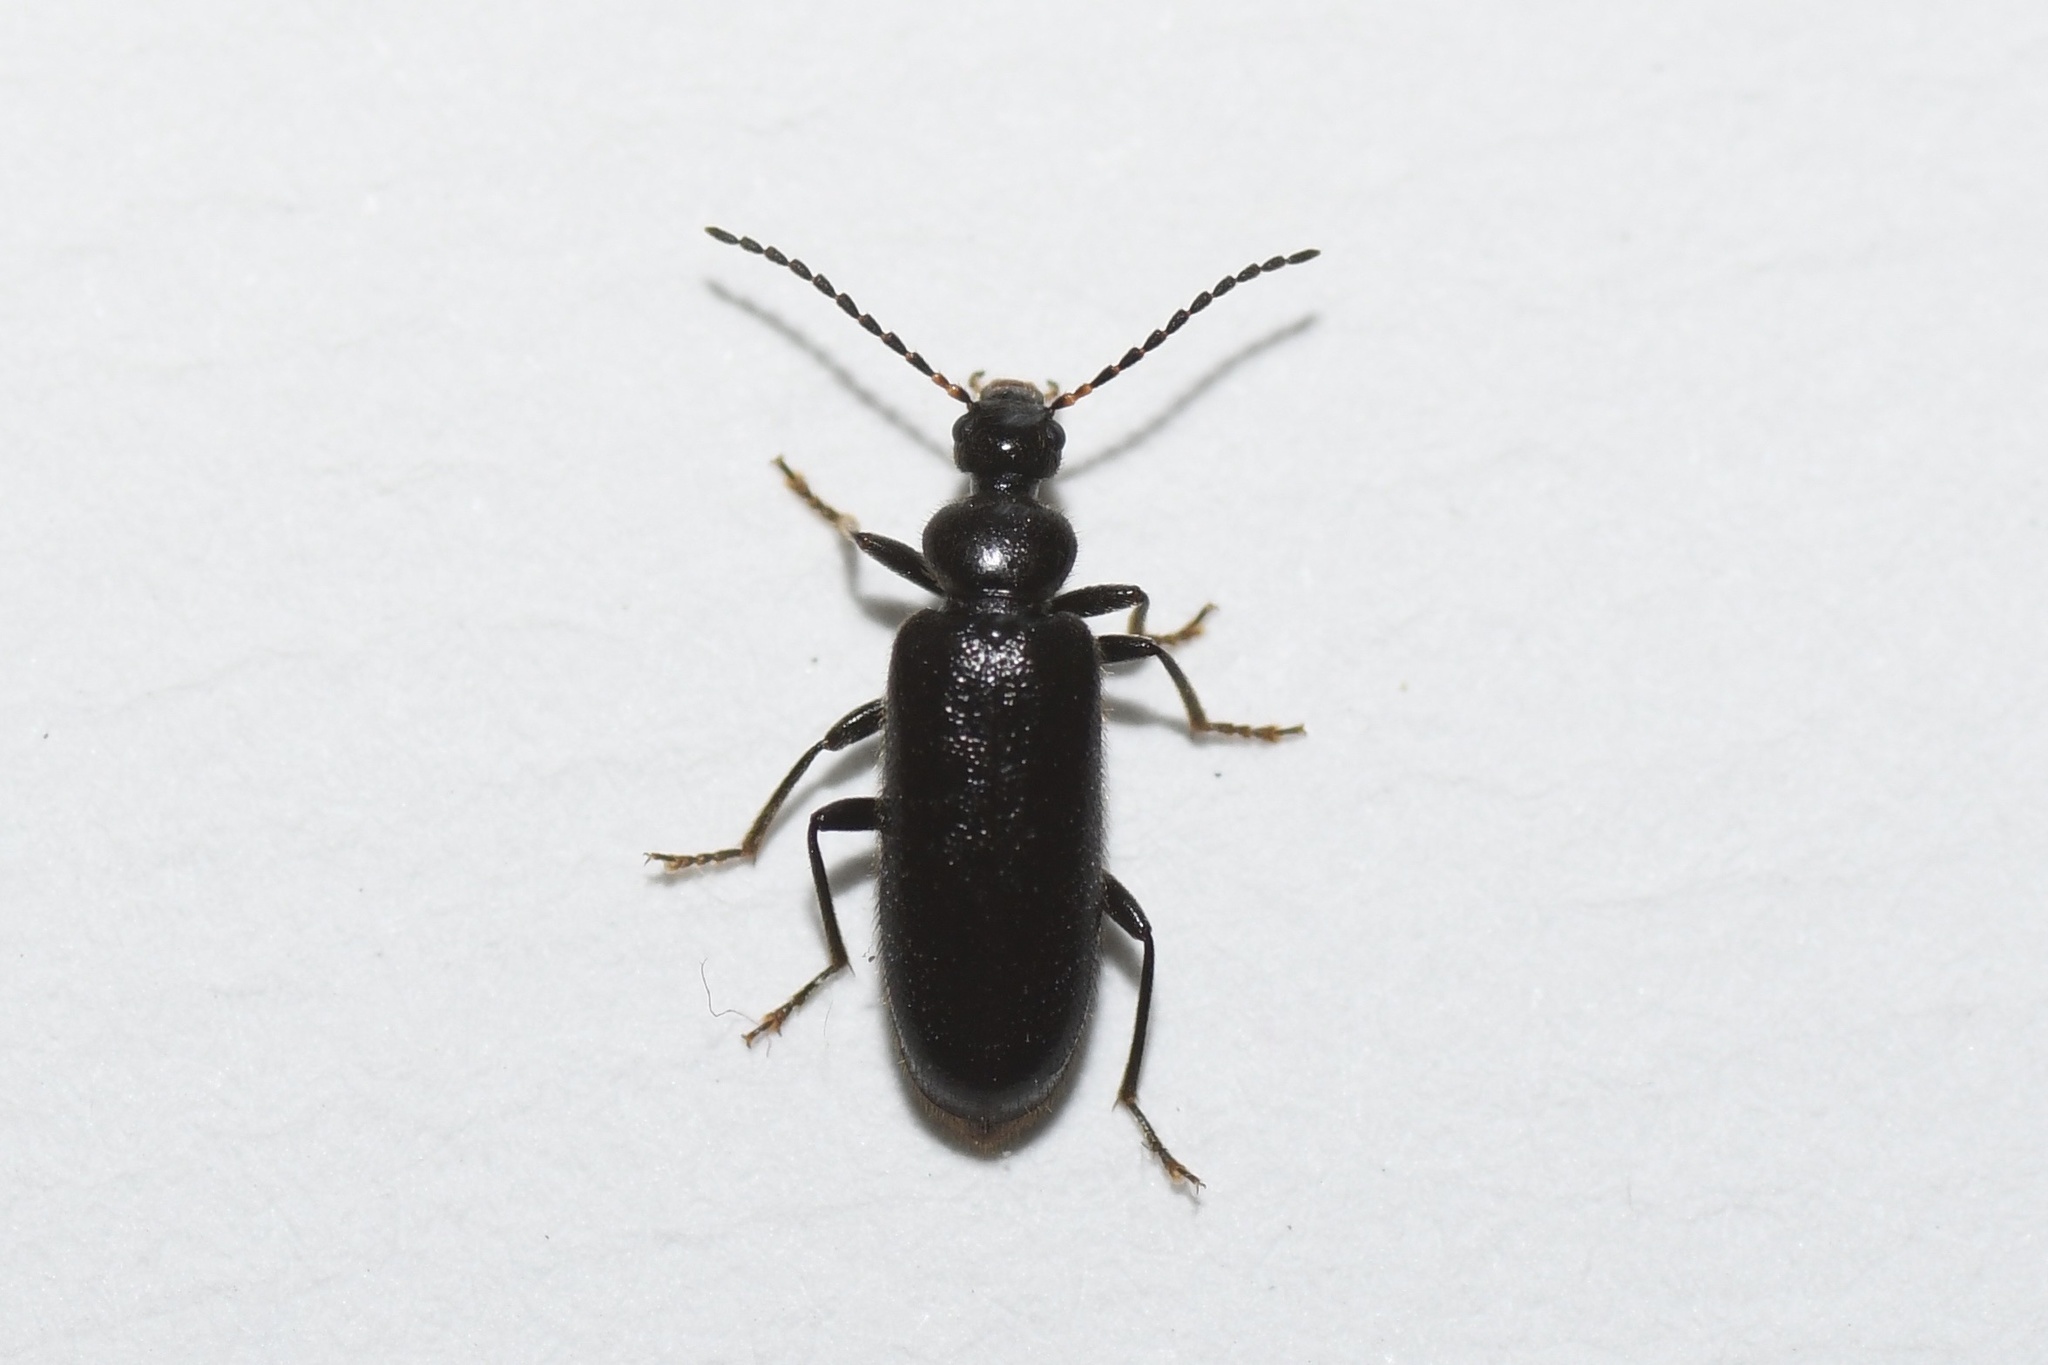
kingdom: Animalia
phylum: Arthropoda
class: Insecta
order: Coleoptera
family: Pyrochroidae
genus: Pedilus
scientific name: Pedilus lugubris
